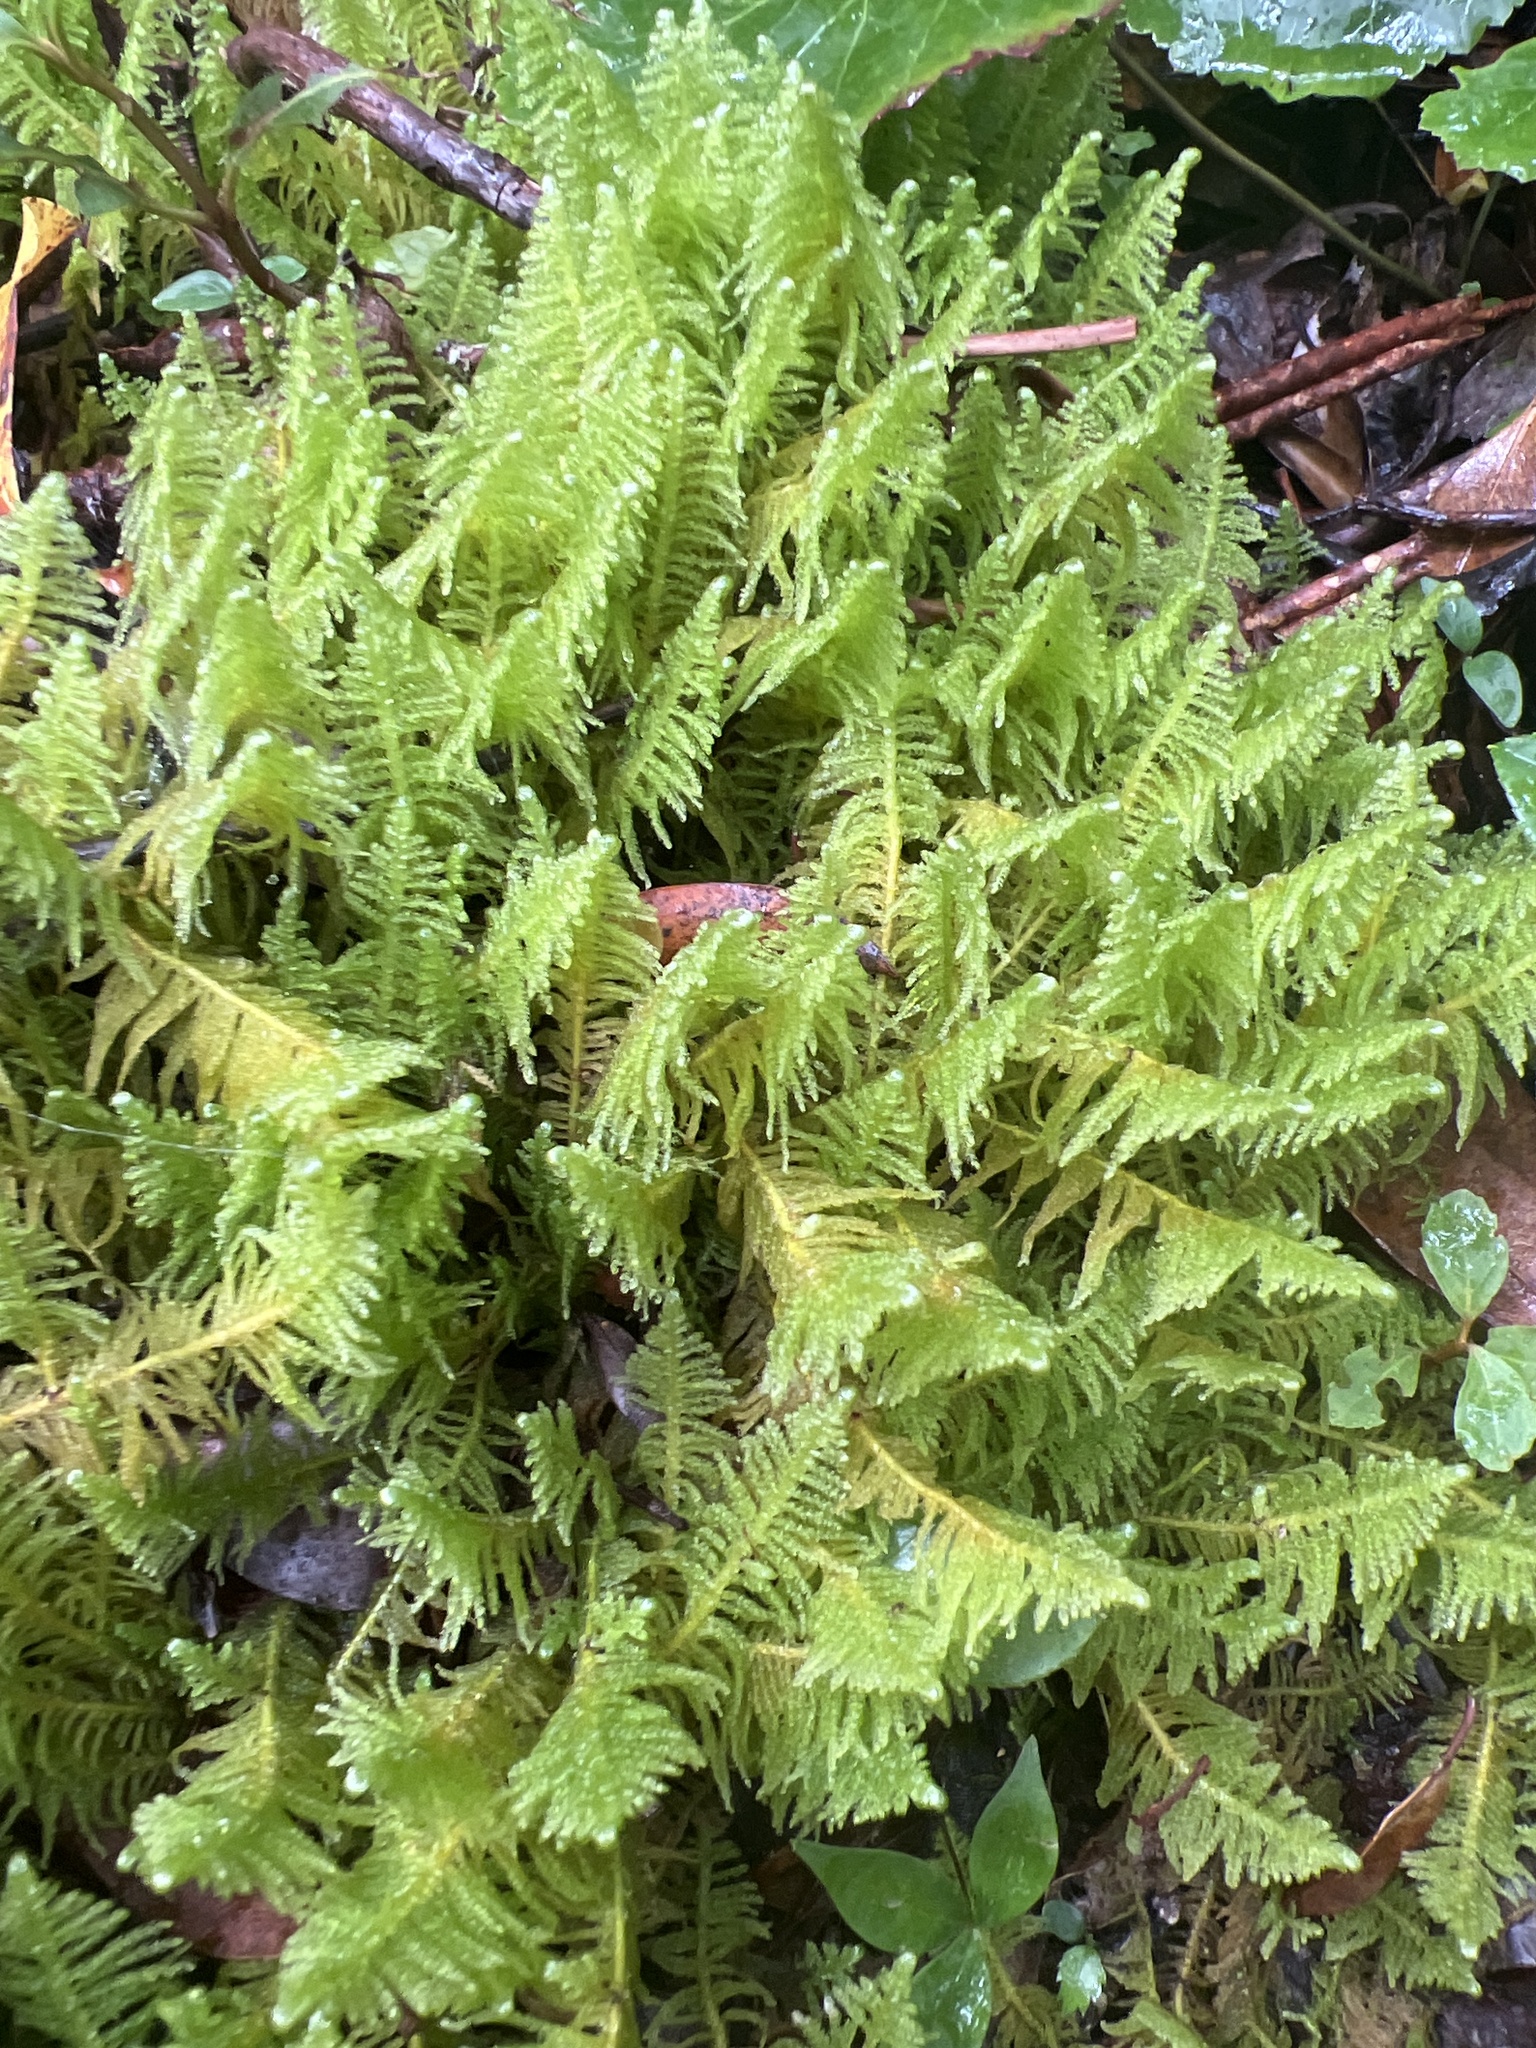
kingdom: Plantae
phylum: Bryophyta
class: Bryopsida
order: Hypnales
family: Pylaisiaceae
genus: Ptilium
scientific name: Ptilium crista-castrensis
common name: Knight's plume moss
